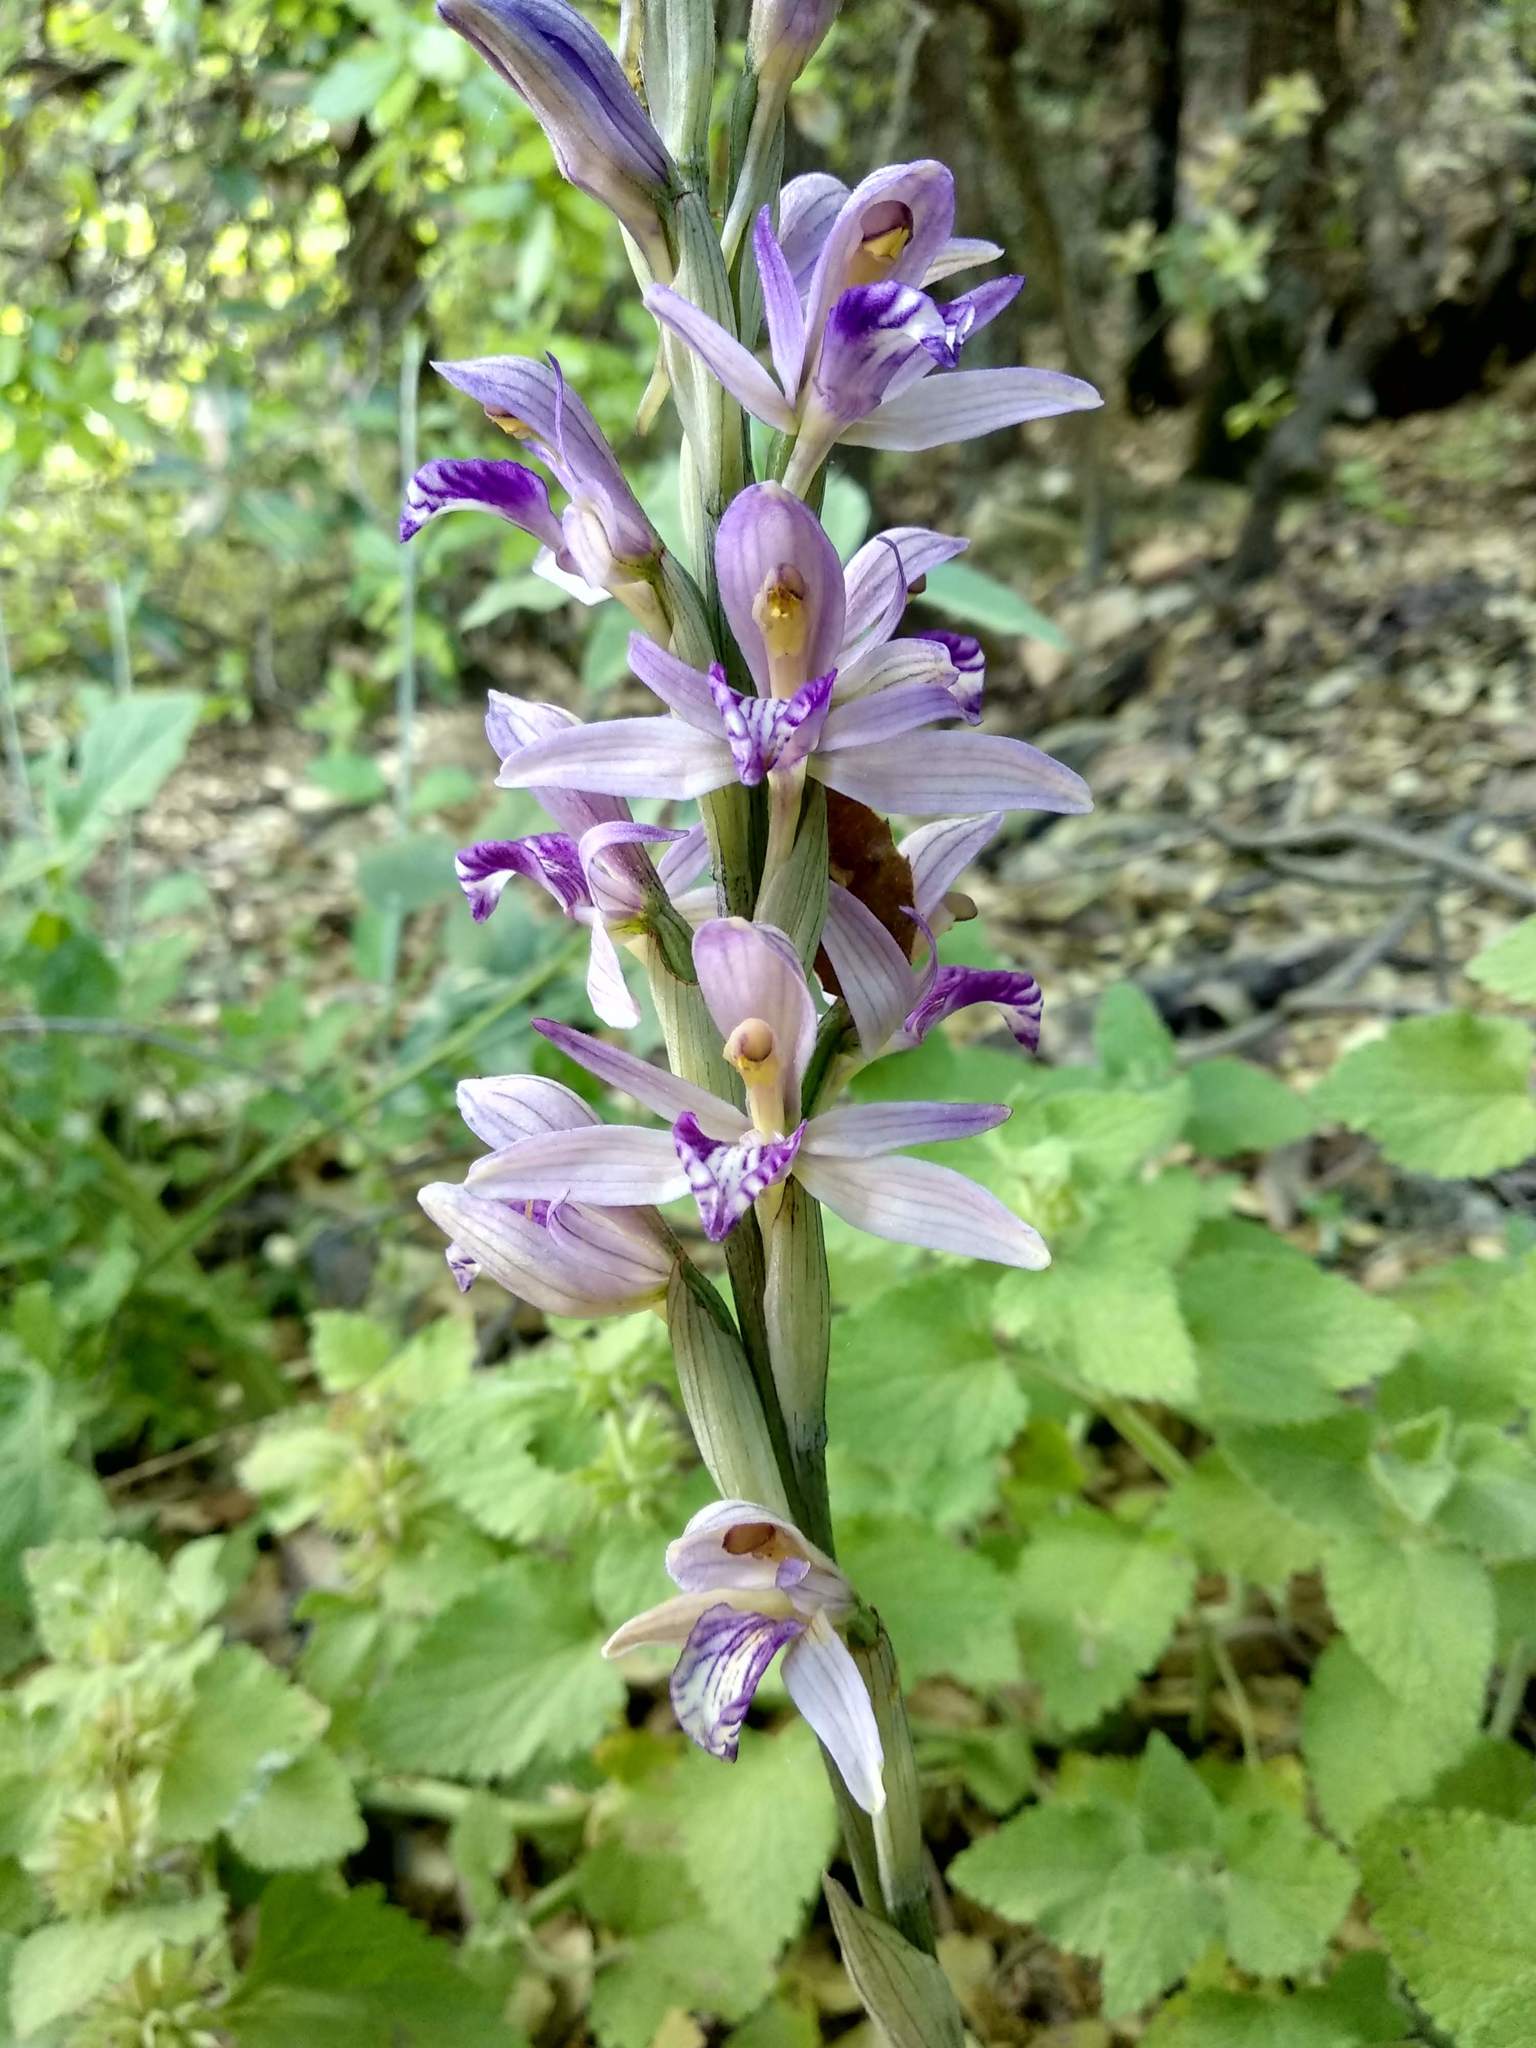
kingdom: Plantae
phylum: Tracheophyta
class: Liliopsida
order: Asparagales
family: Orchidaceae
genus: Limodorum
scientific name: Limodorum abortivum
